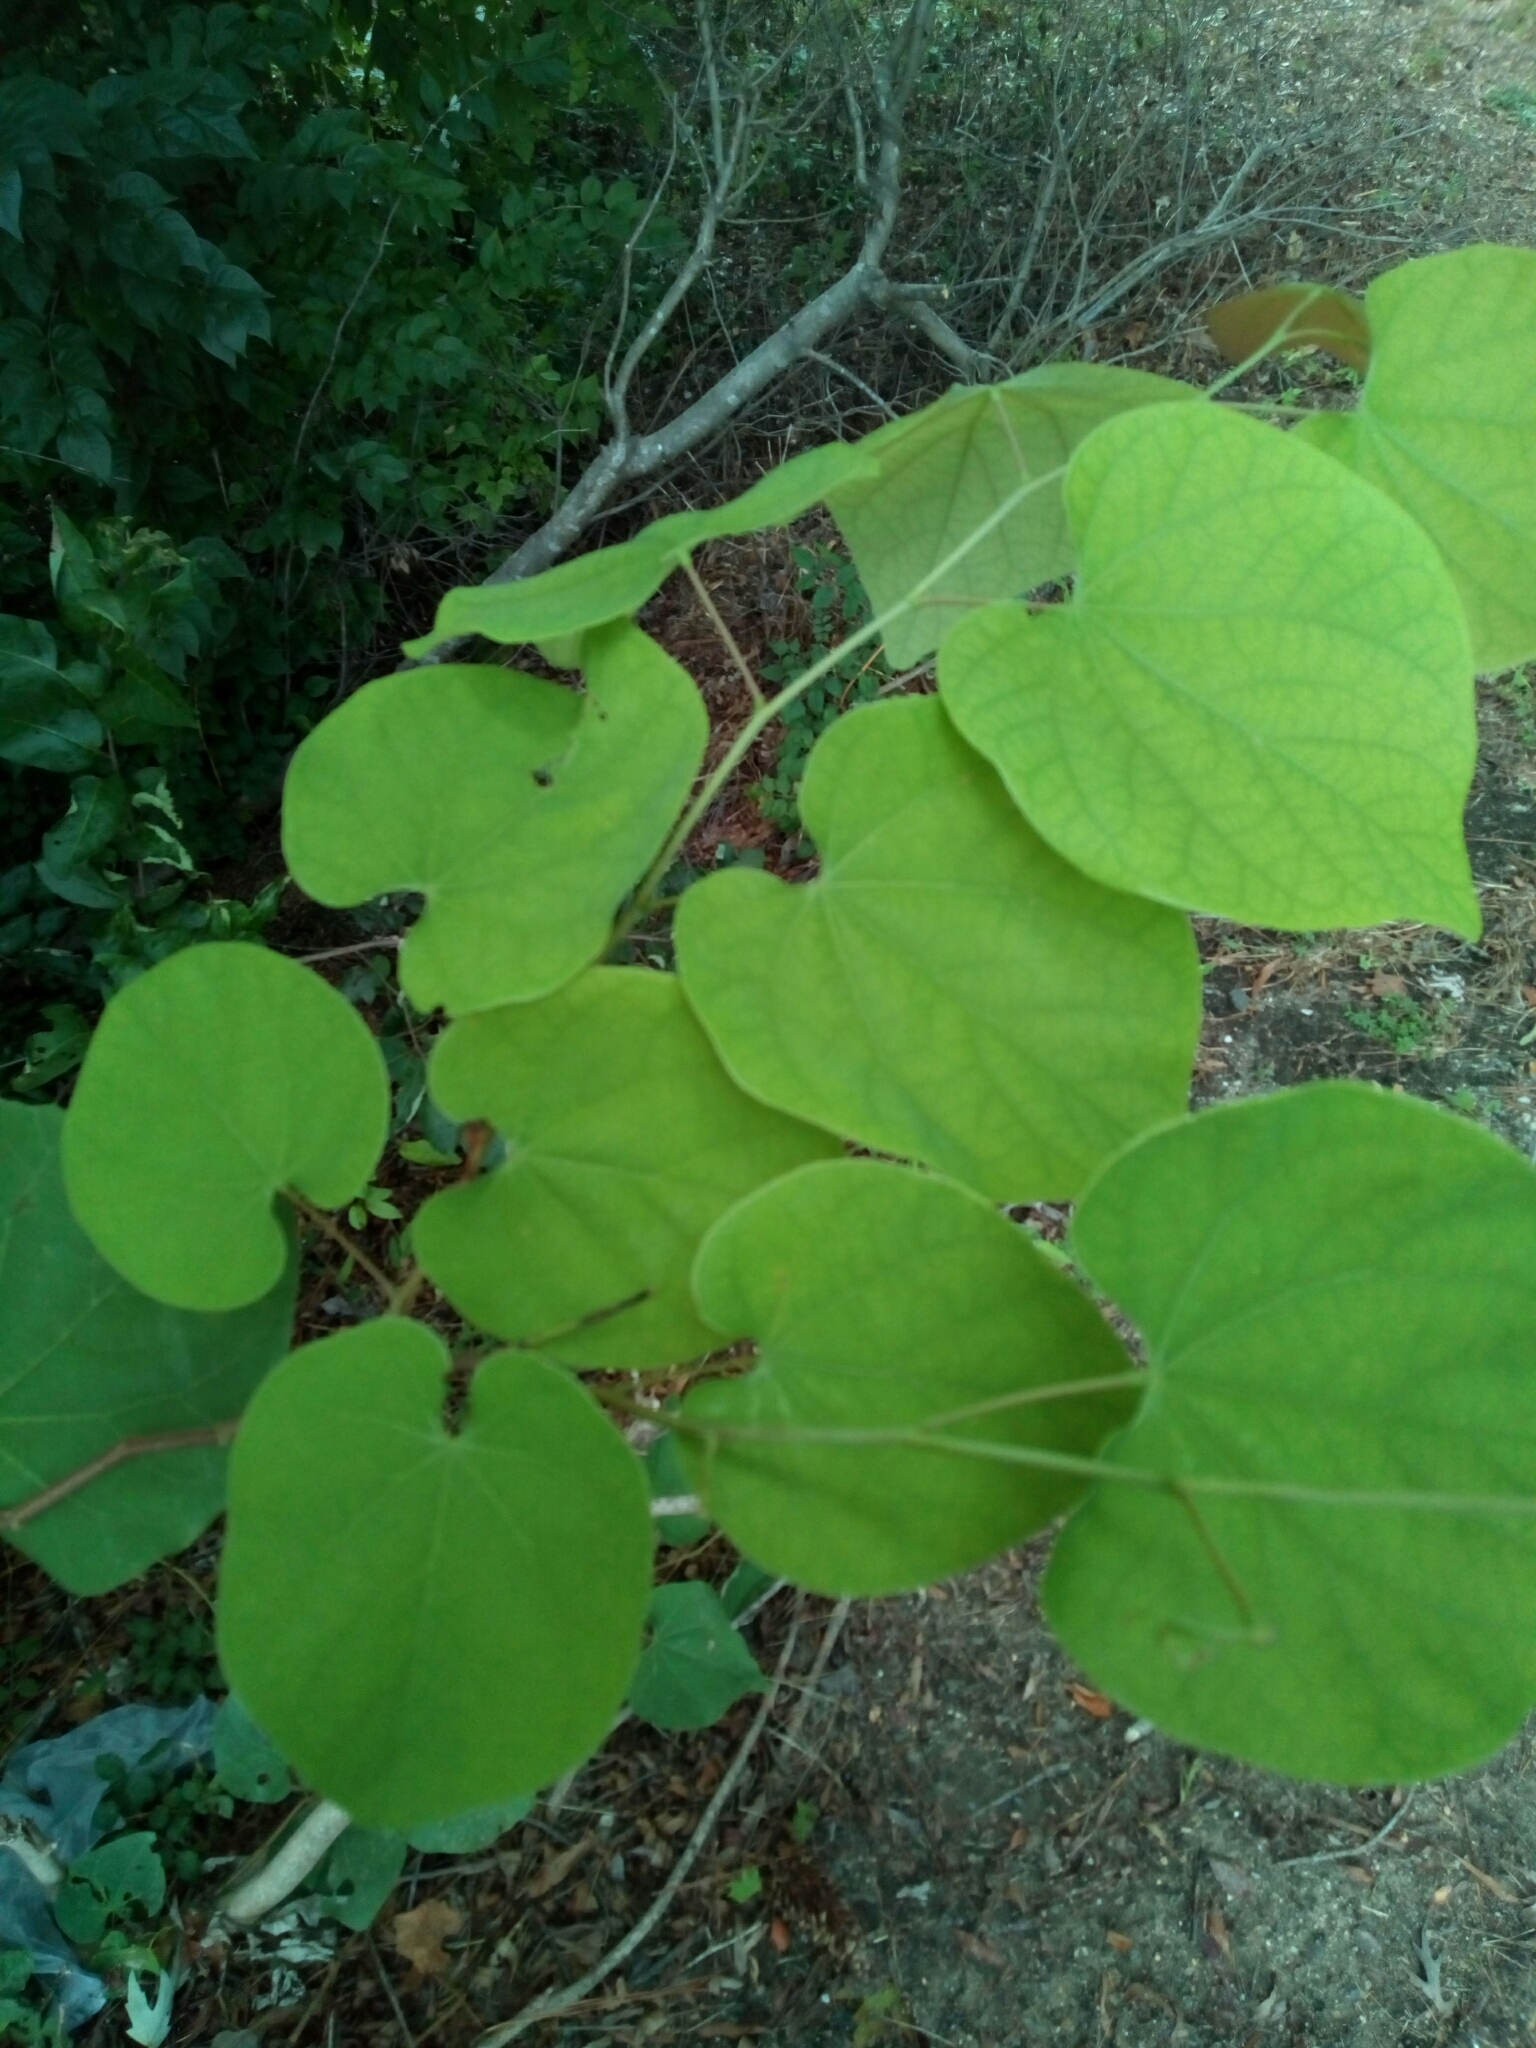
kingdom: Plantae
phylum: Tracheophyta
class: Magnoliopsida
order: Fabales
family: Fabaceae
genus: Cercis
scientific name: Cercis canadensis
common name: Eastern redbud
